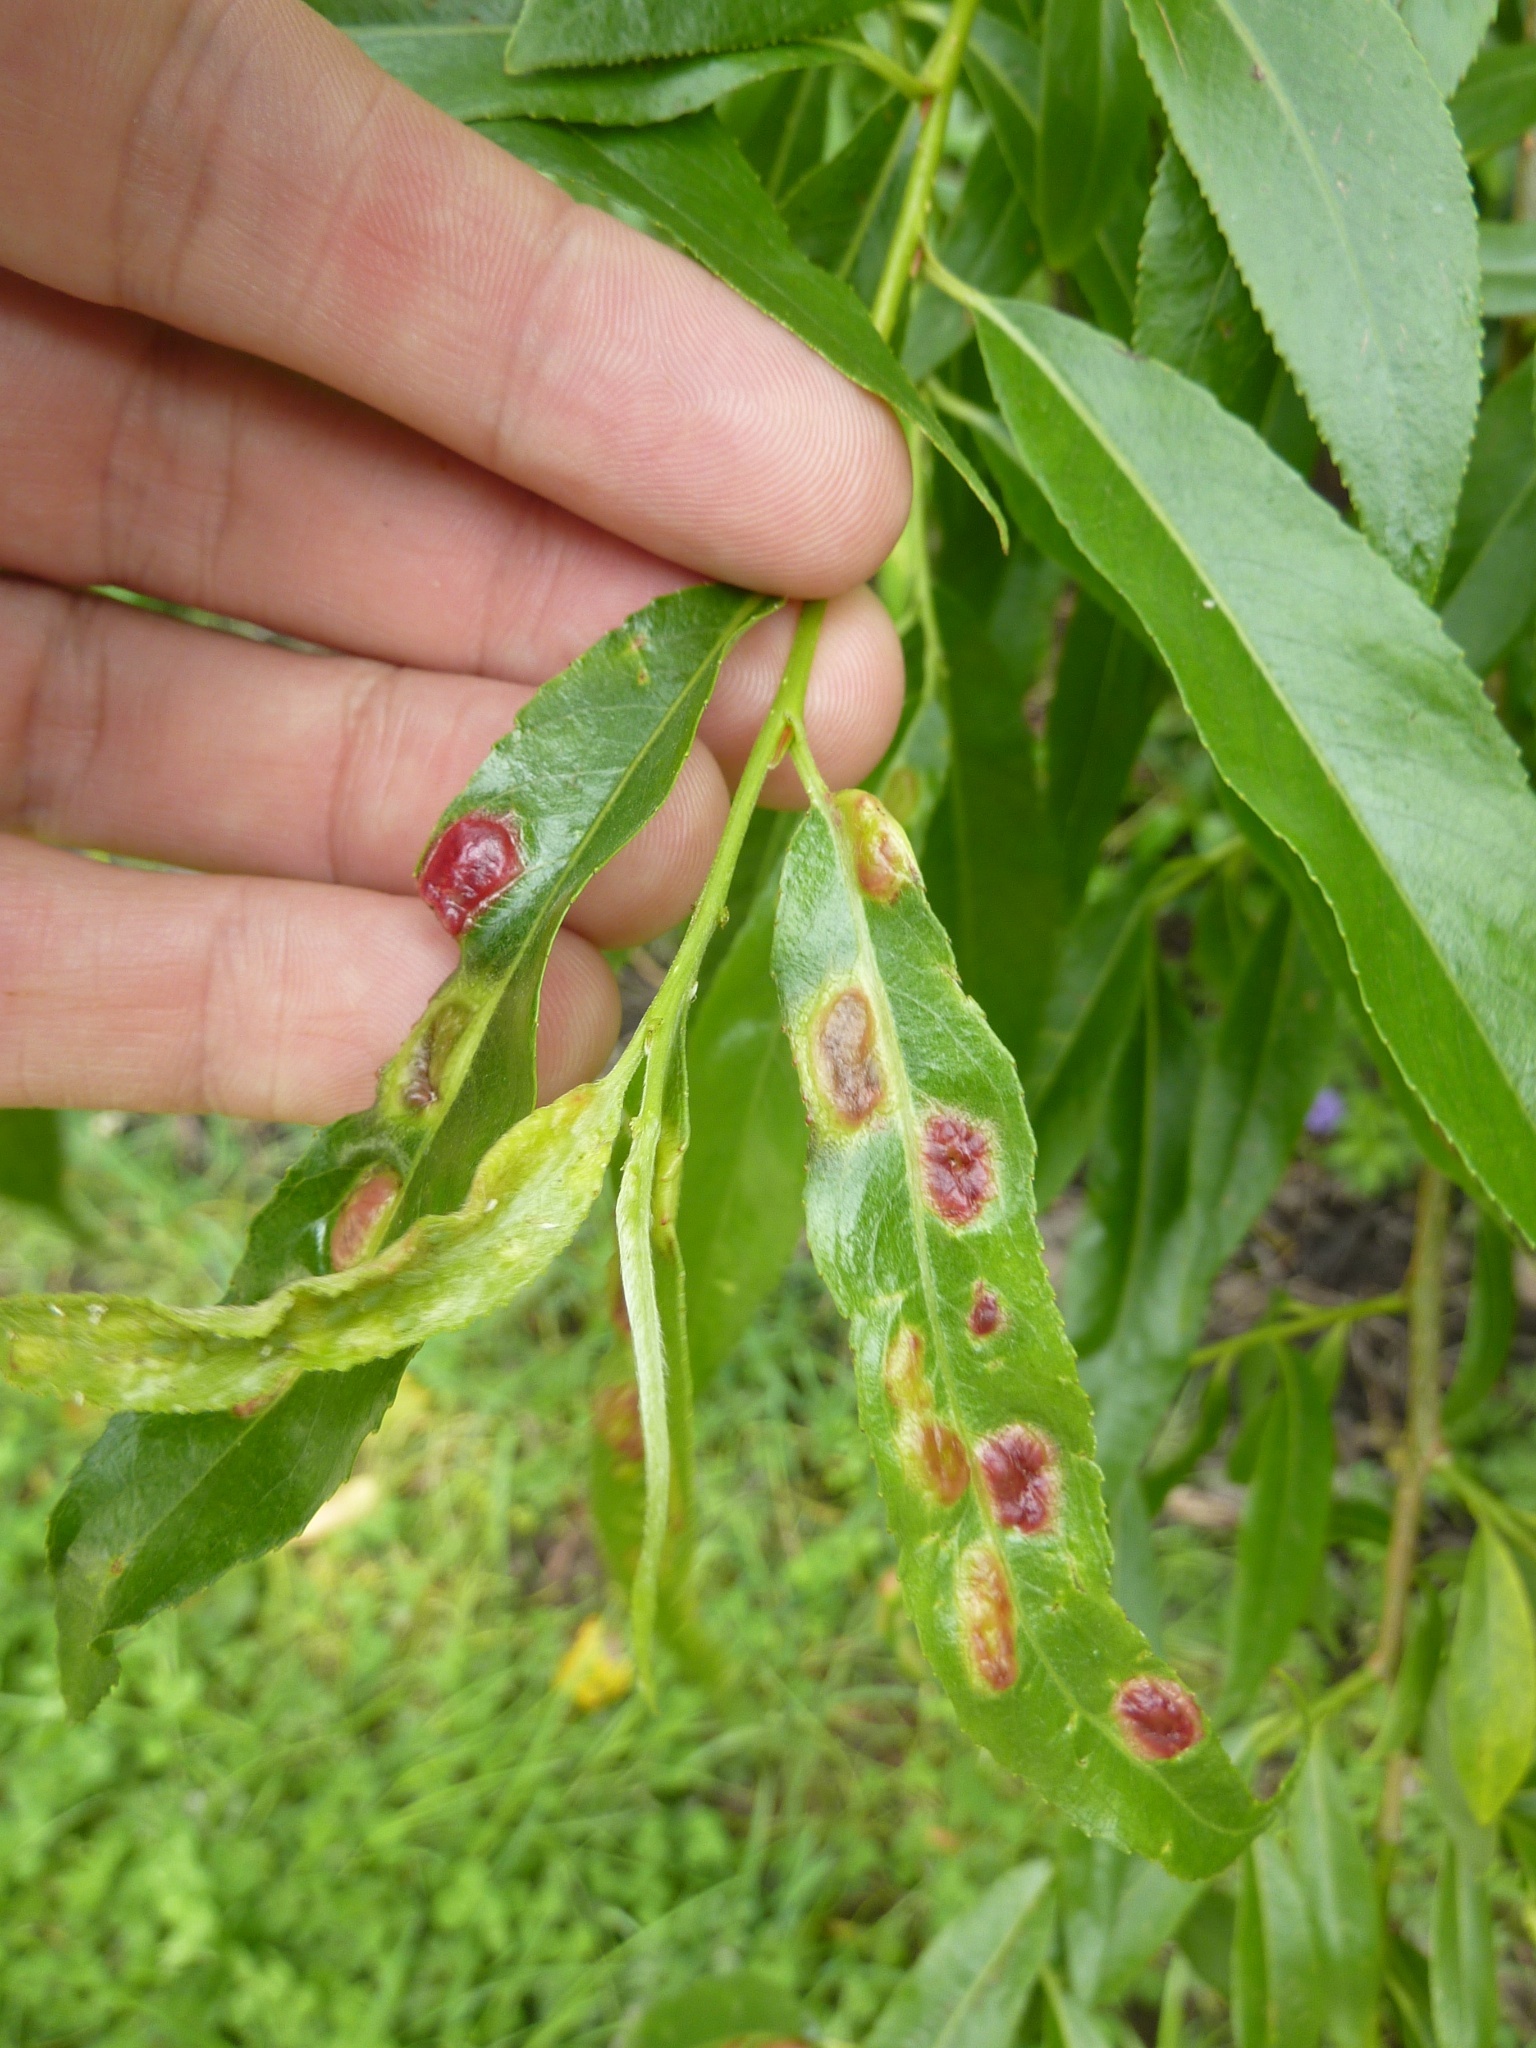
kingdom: Animalia
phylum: Arthropoda
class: Insecta
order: Hymenoptera
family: Tenthredinidae
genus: Pontania
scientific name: Pontania proxima
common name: Common sawfly
